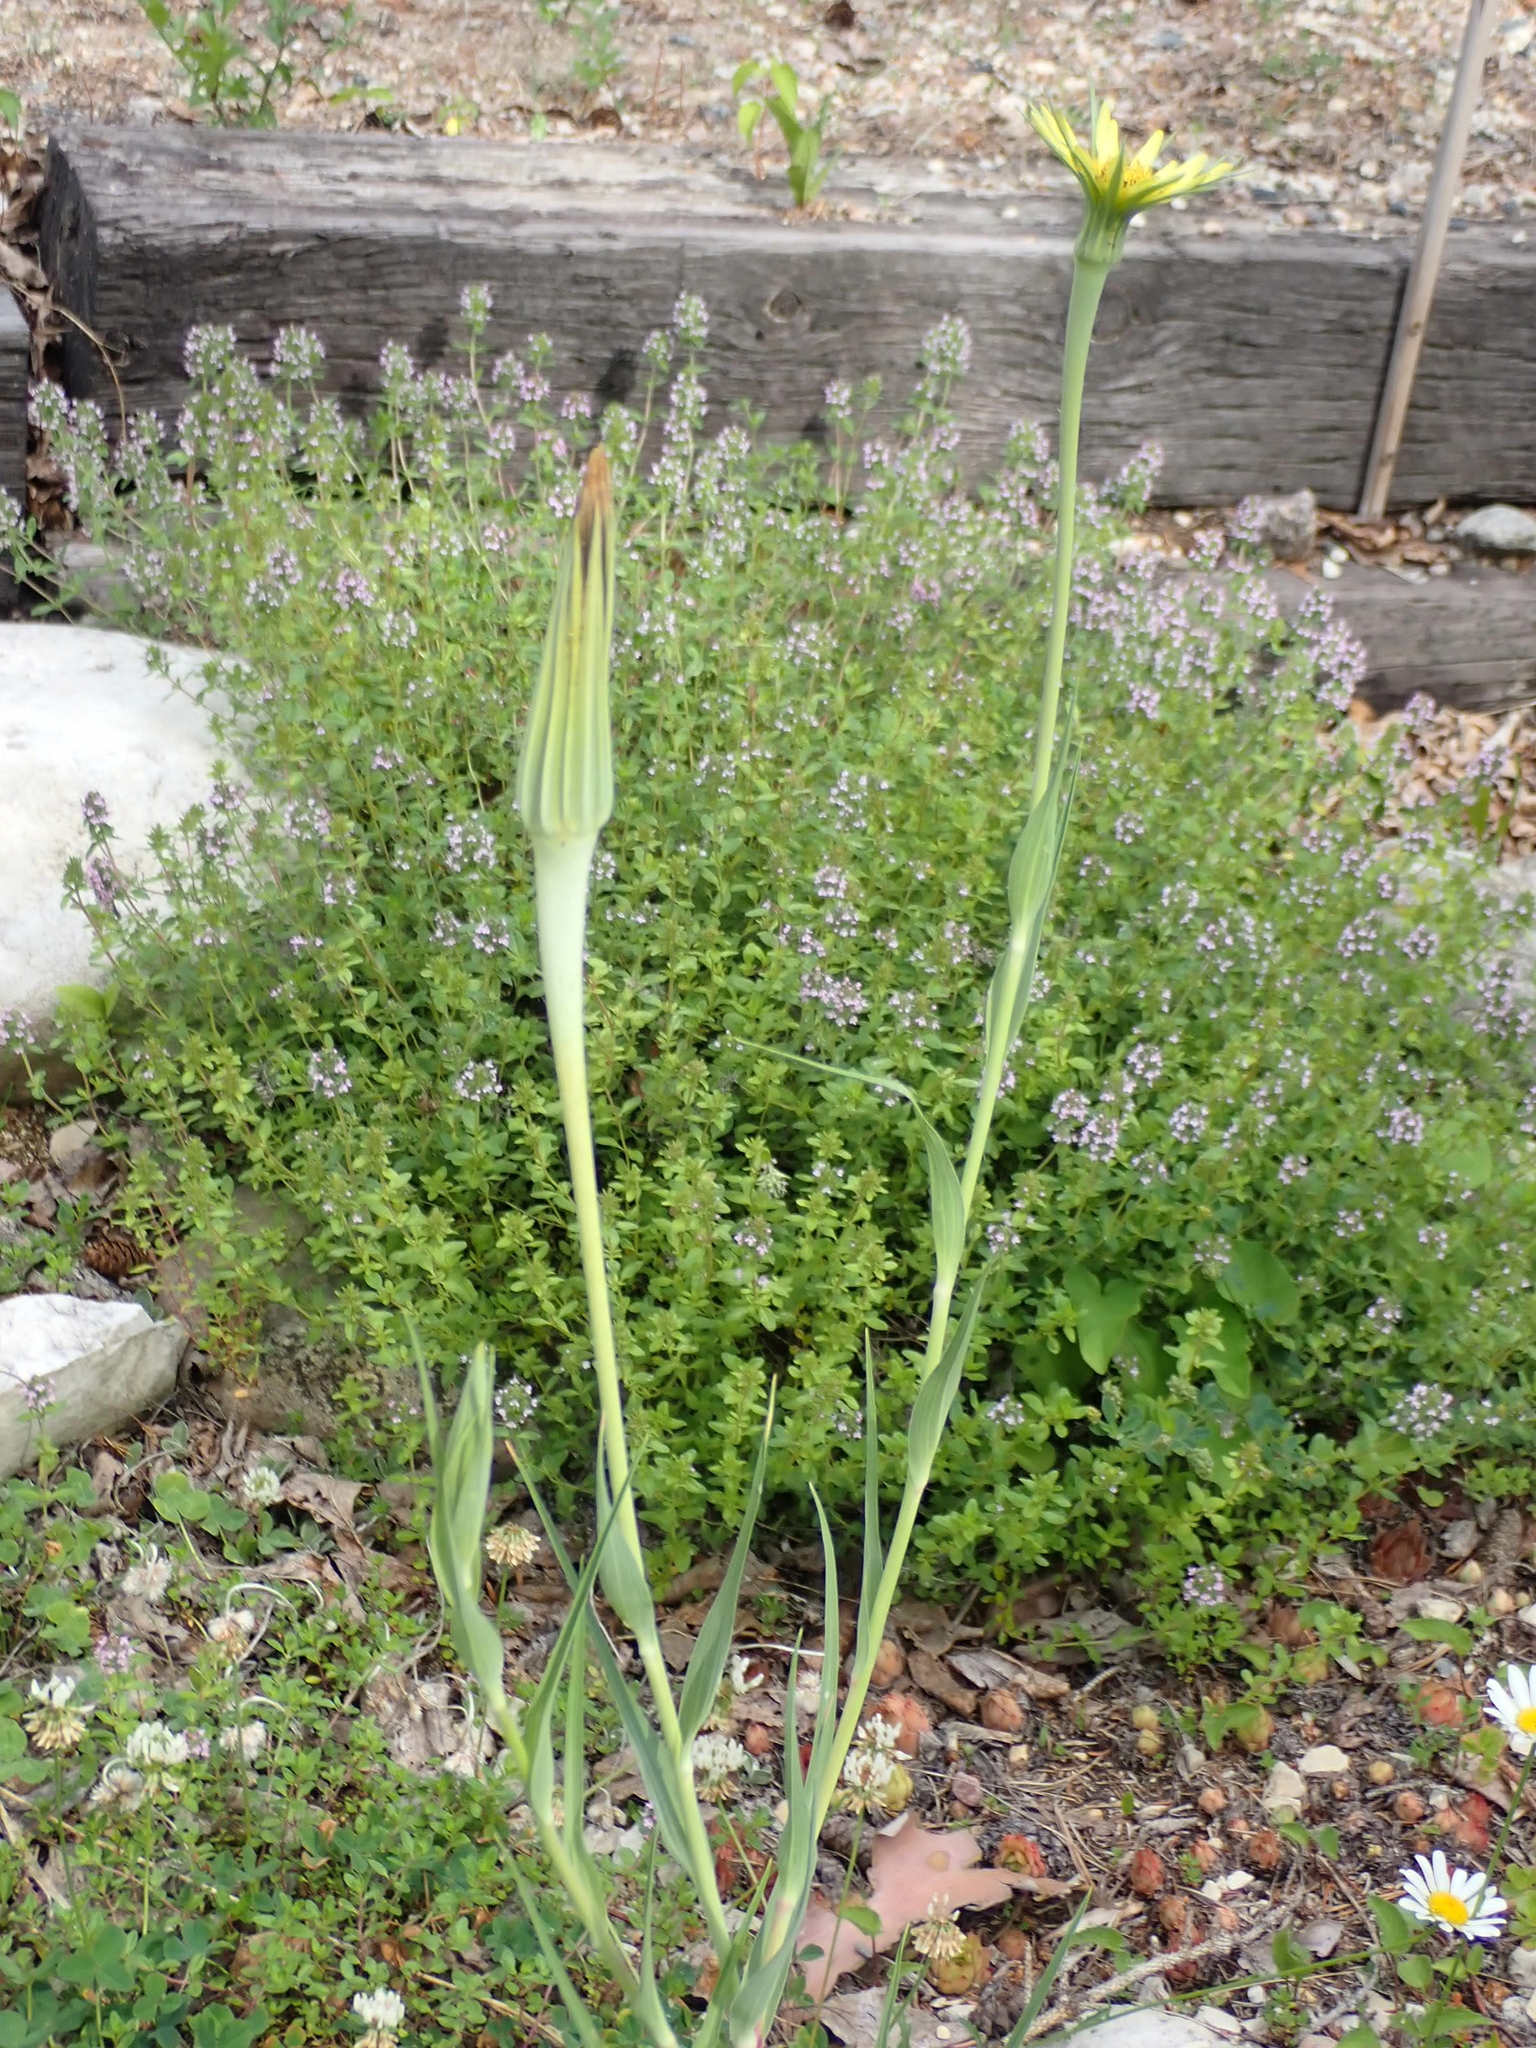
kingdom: Plantae
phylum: Tracheophyta
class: Magnoliopsida
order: Asterales
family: Asteraceae
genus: Tragopogon
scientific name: Tragopogon dubius
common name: Yellow salsify
